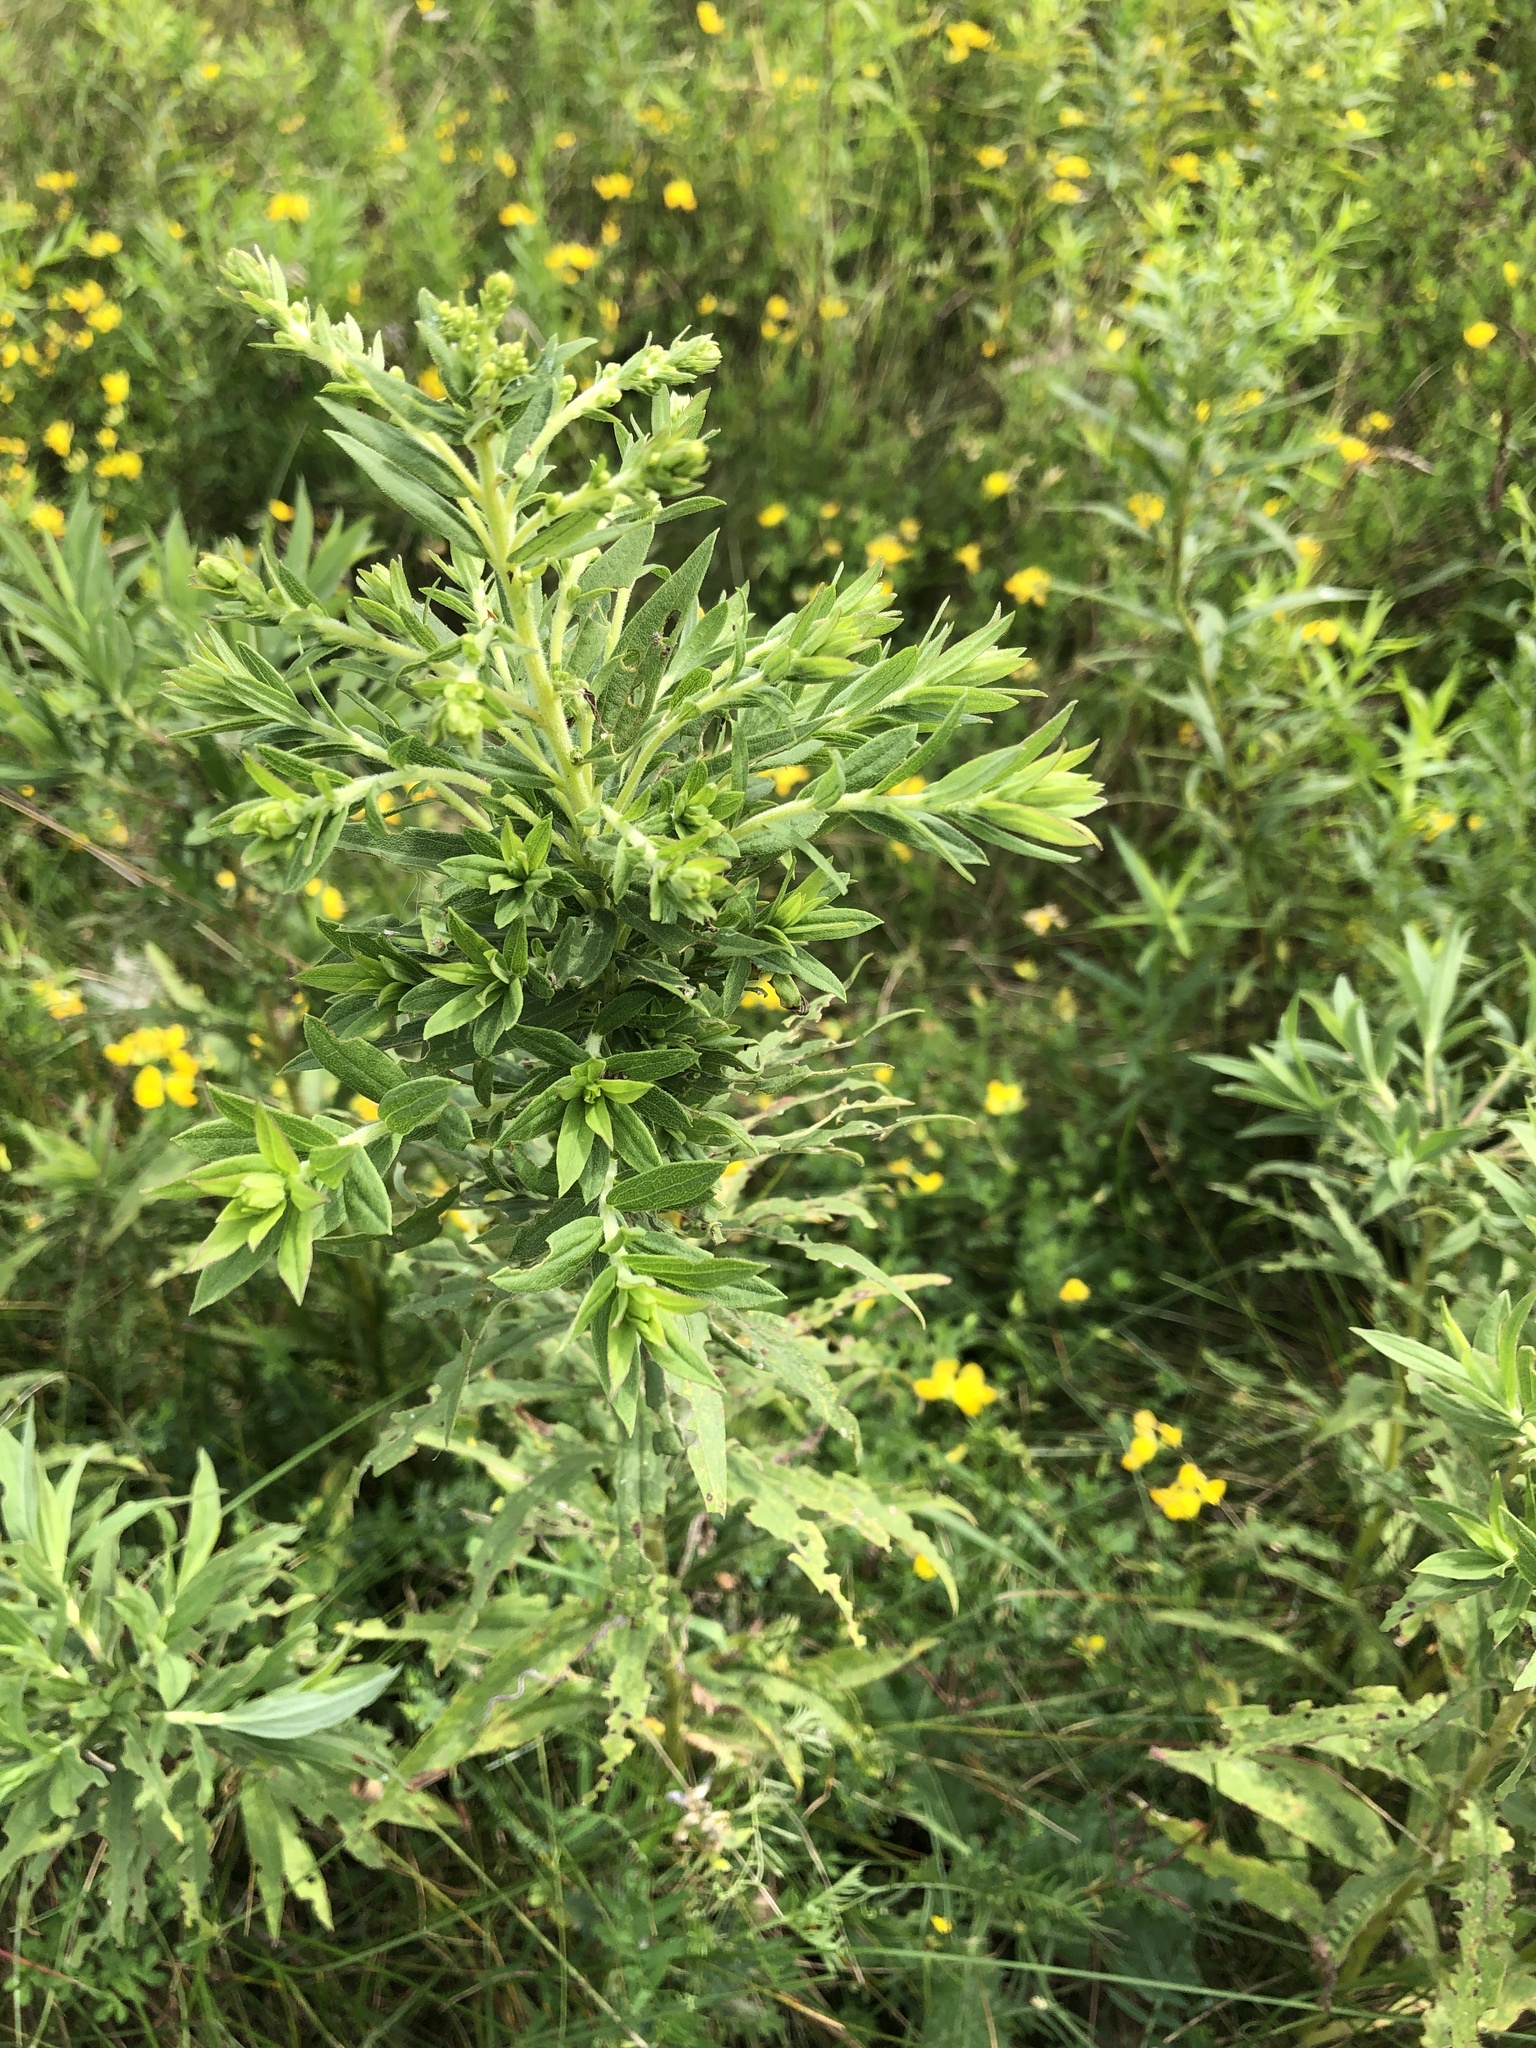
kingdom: Plantae
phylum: Tracheophyta
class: Magnoliopsida
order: Asterales
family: Asteraceae
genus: Artemisia
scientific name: Artemisia vulgaris
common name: Mugwort
